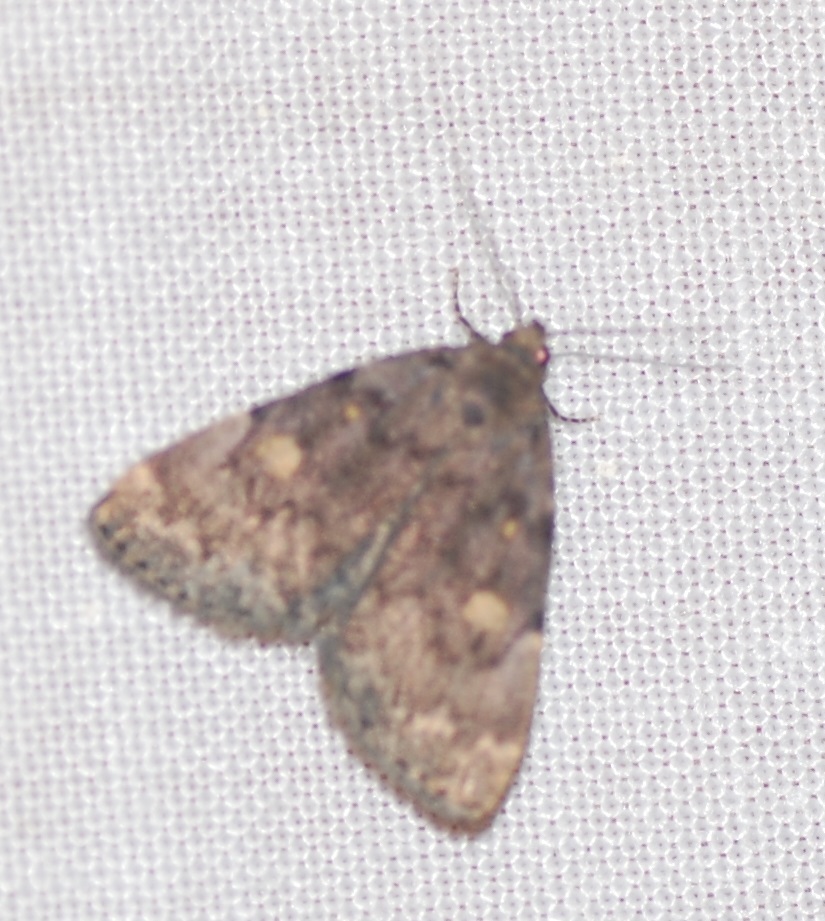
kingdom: Animalia
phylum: Arthropoda
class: Insecta
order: Lepidoptera
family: Erebidae
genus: Idia
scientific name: Idia aemula
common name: Common idia moth
